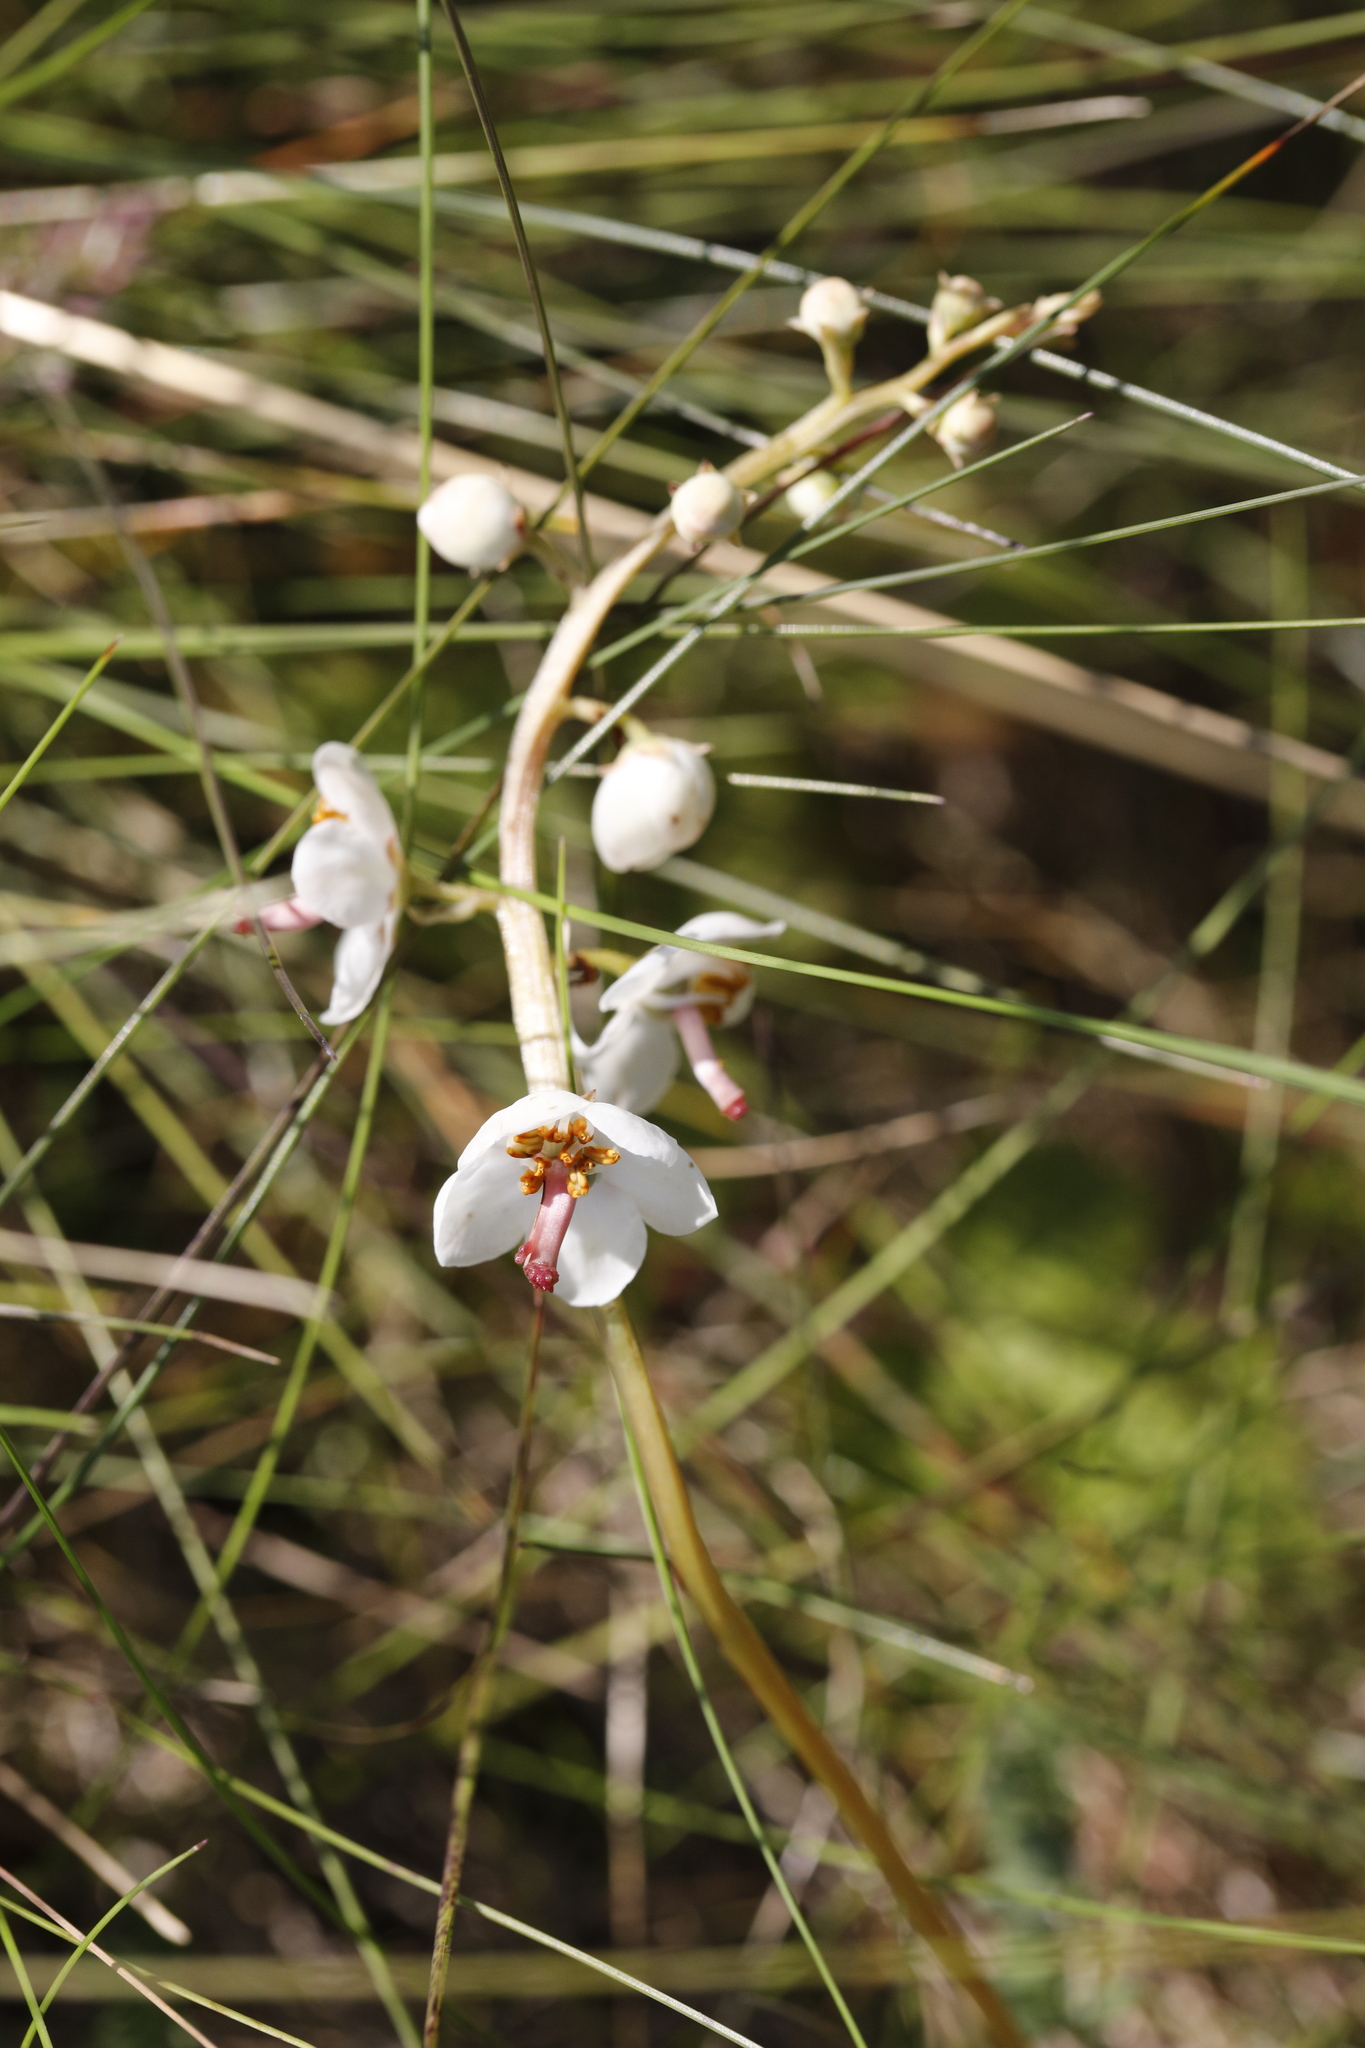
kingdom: Plantae
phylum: Tracheophyta
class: Magnoliopsida
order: Ericales
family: Ericaceae
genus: Pyrola
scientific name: Pyrola rotundifolia
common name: Round-leaved wintergreen
